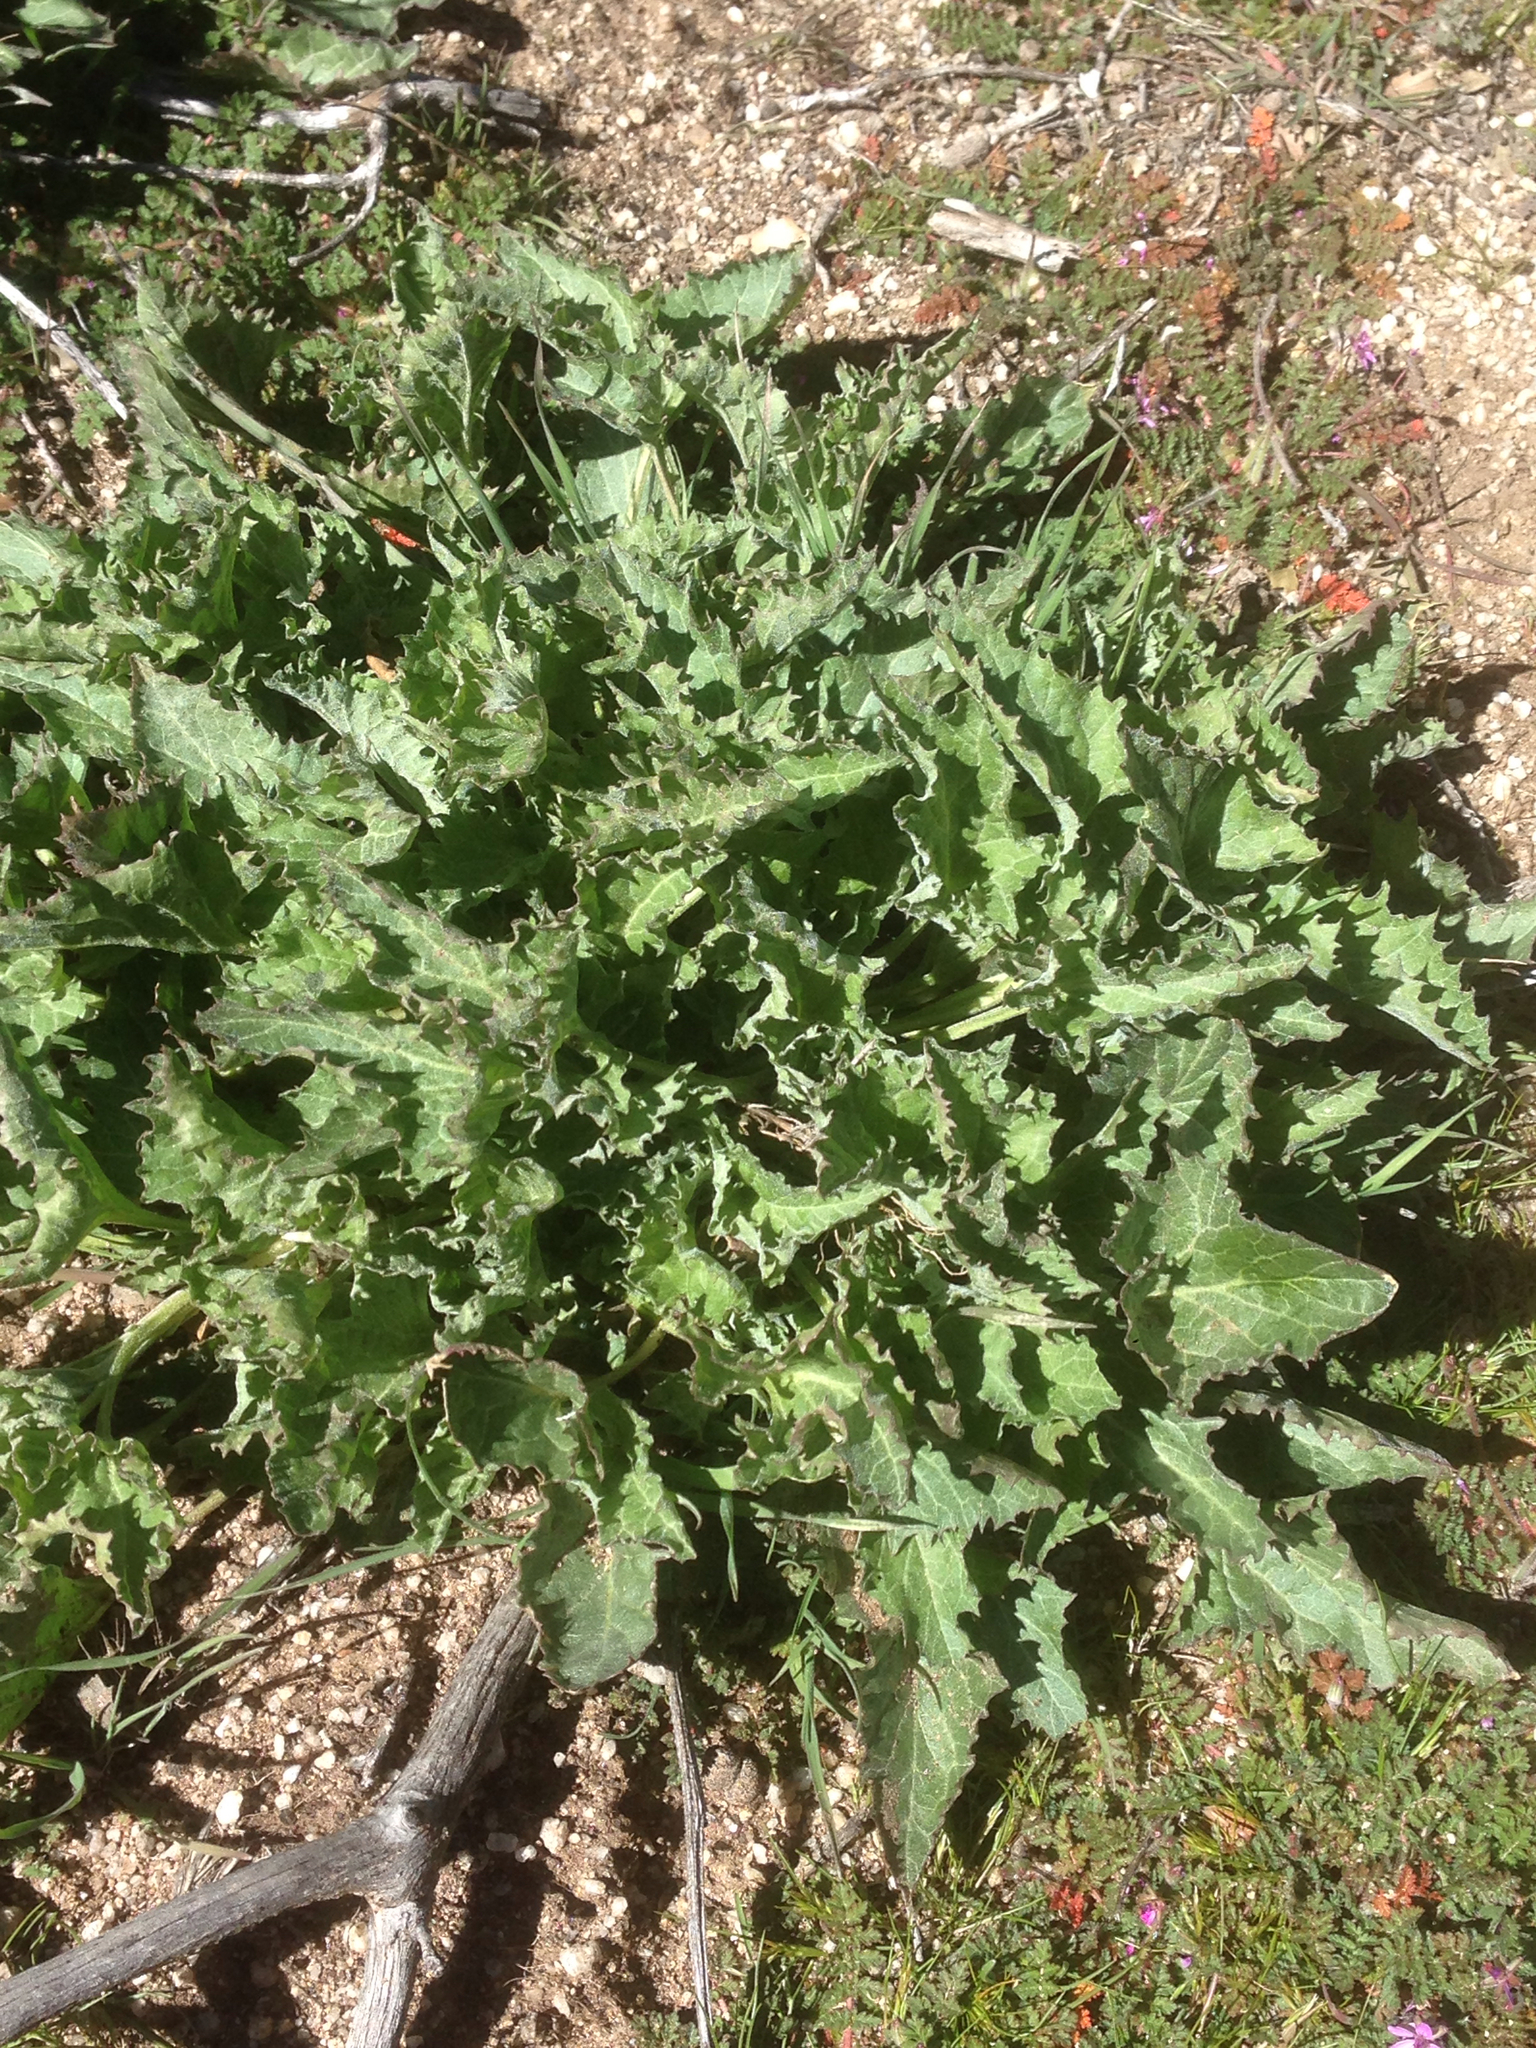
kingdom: Plantae
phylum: Tracheophyta
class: Magnoliopsida
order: Caryophyllales
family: Amaranthaceae
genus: Blitum
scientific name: Blitum californicum
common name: California goosefoot
